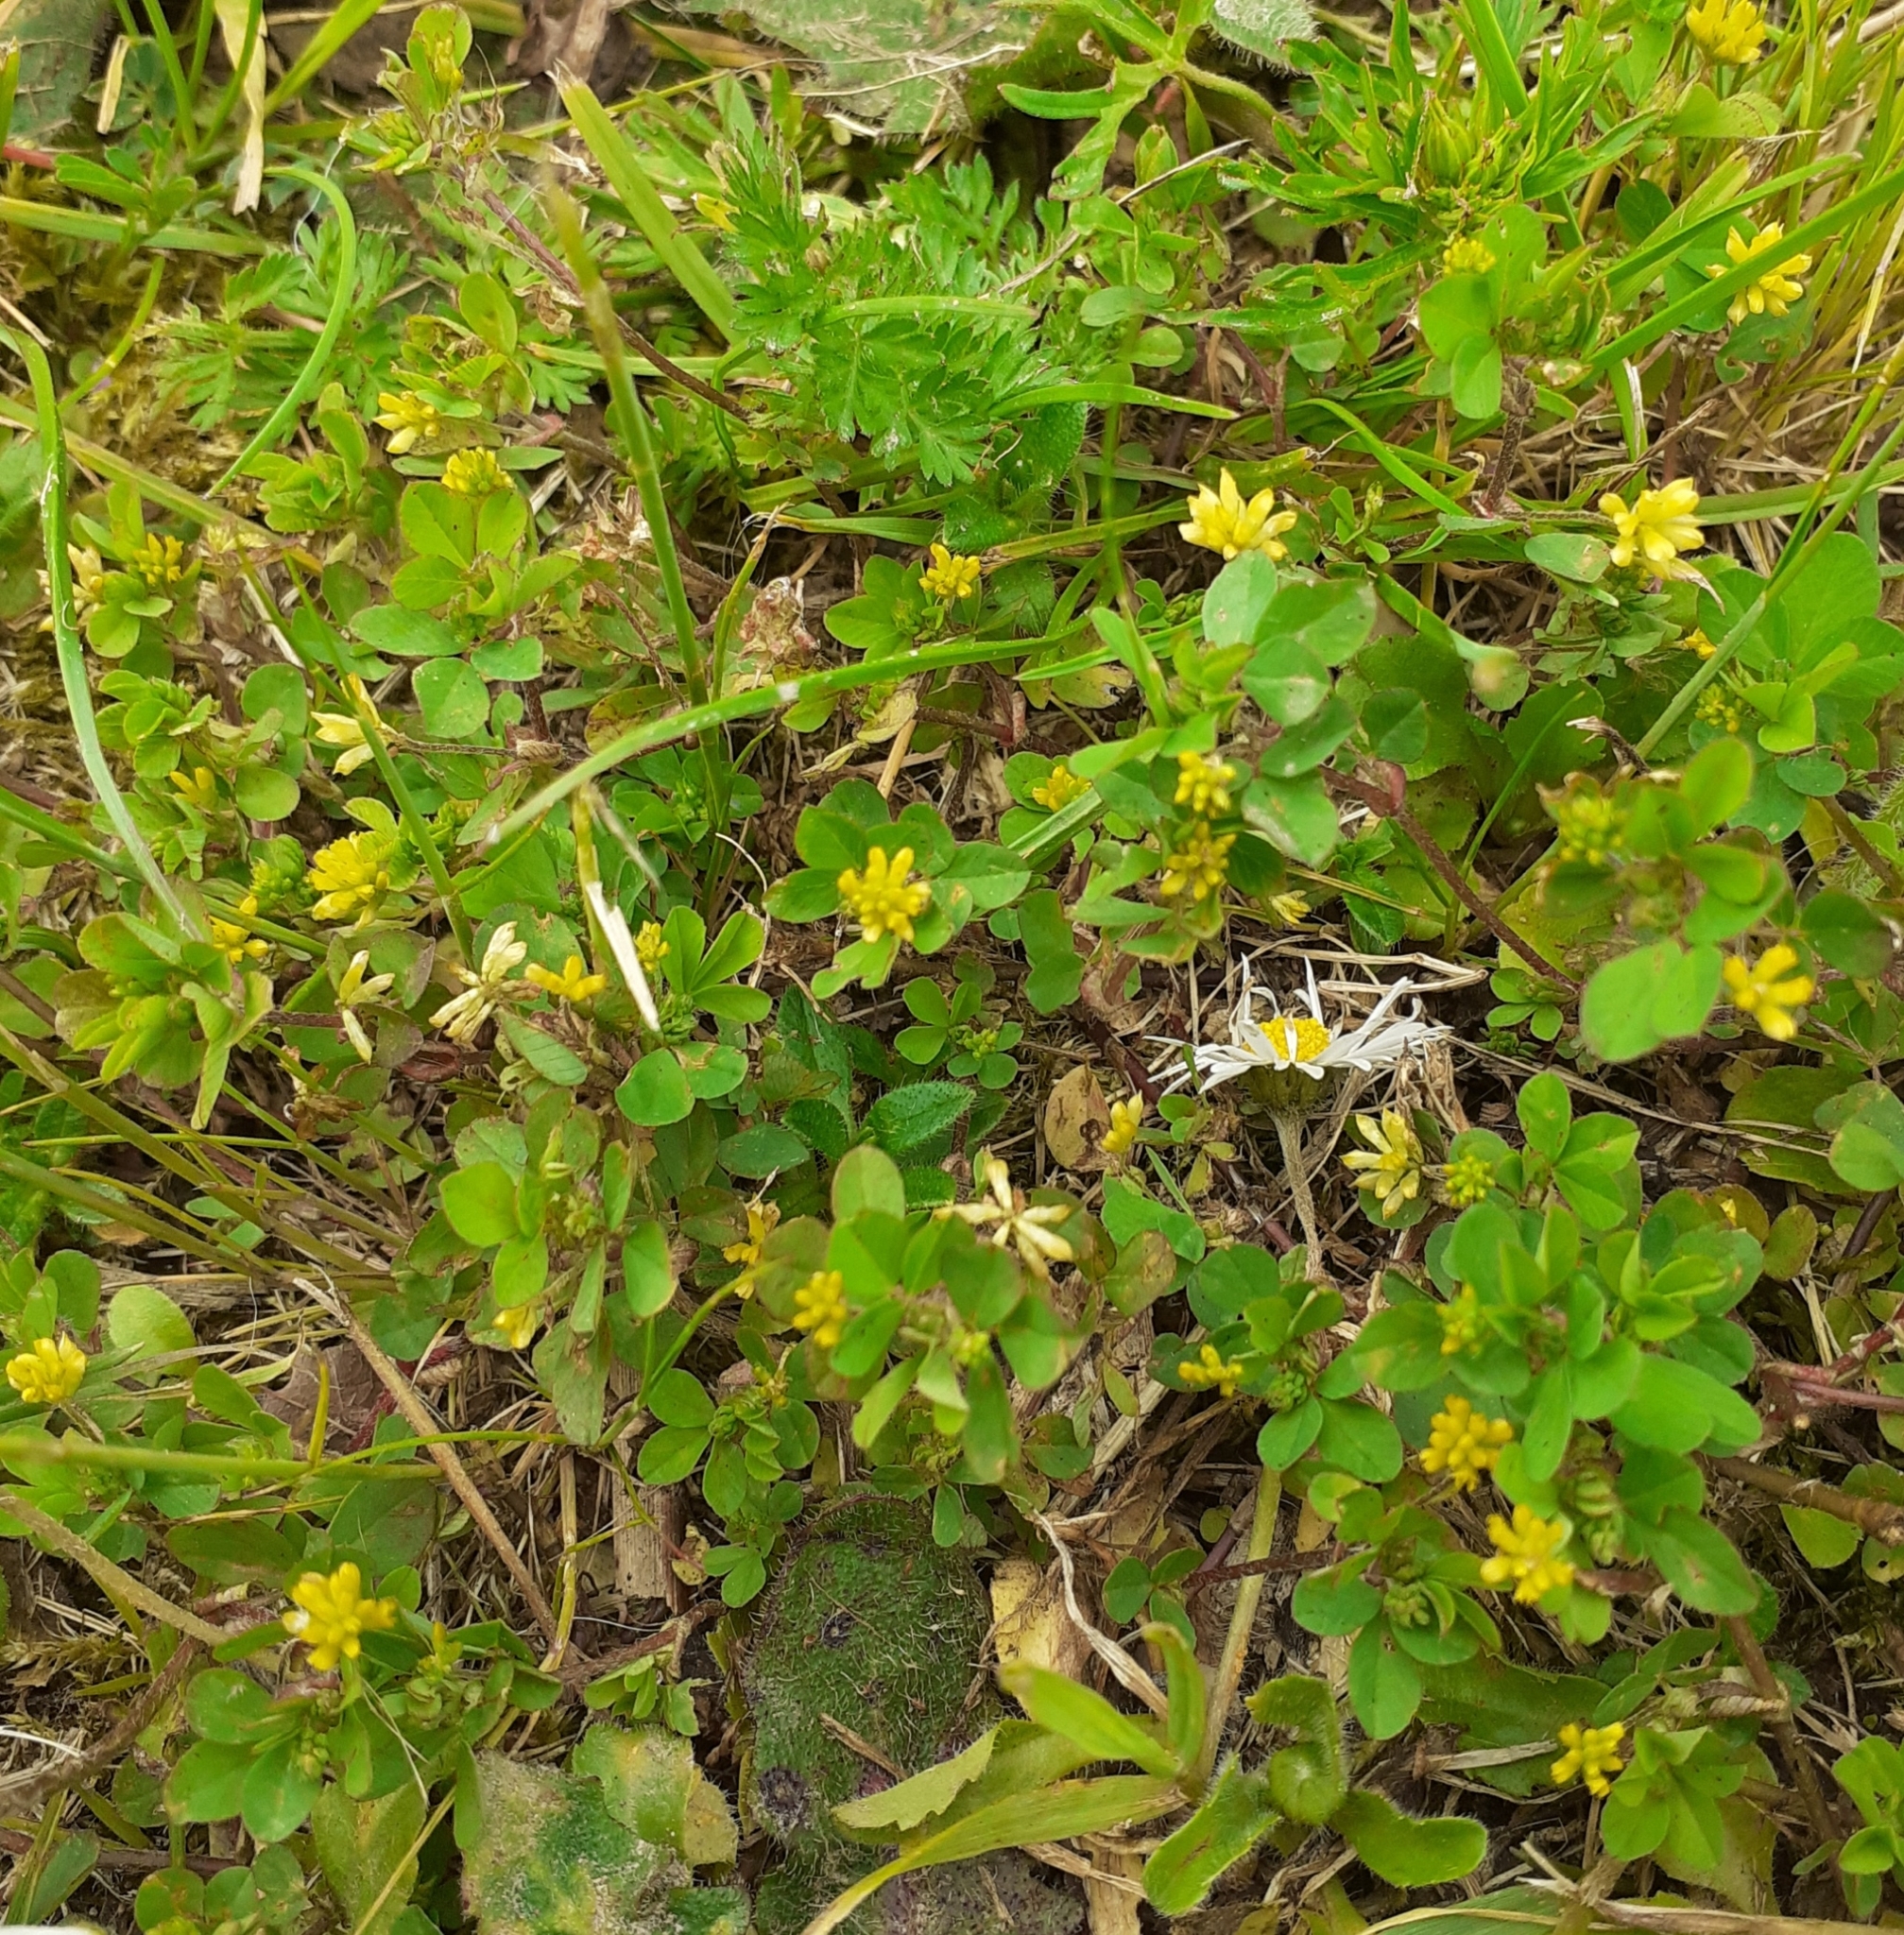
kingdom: Plantae
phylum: Tracheophyta
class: Magnoliopsida
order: Fabales
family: Fabaceae
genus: Trifolium
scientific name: Trifolium dubium
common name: Suckling clover
